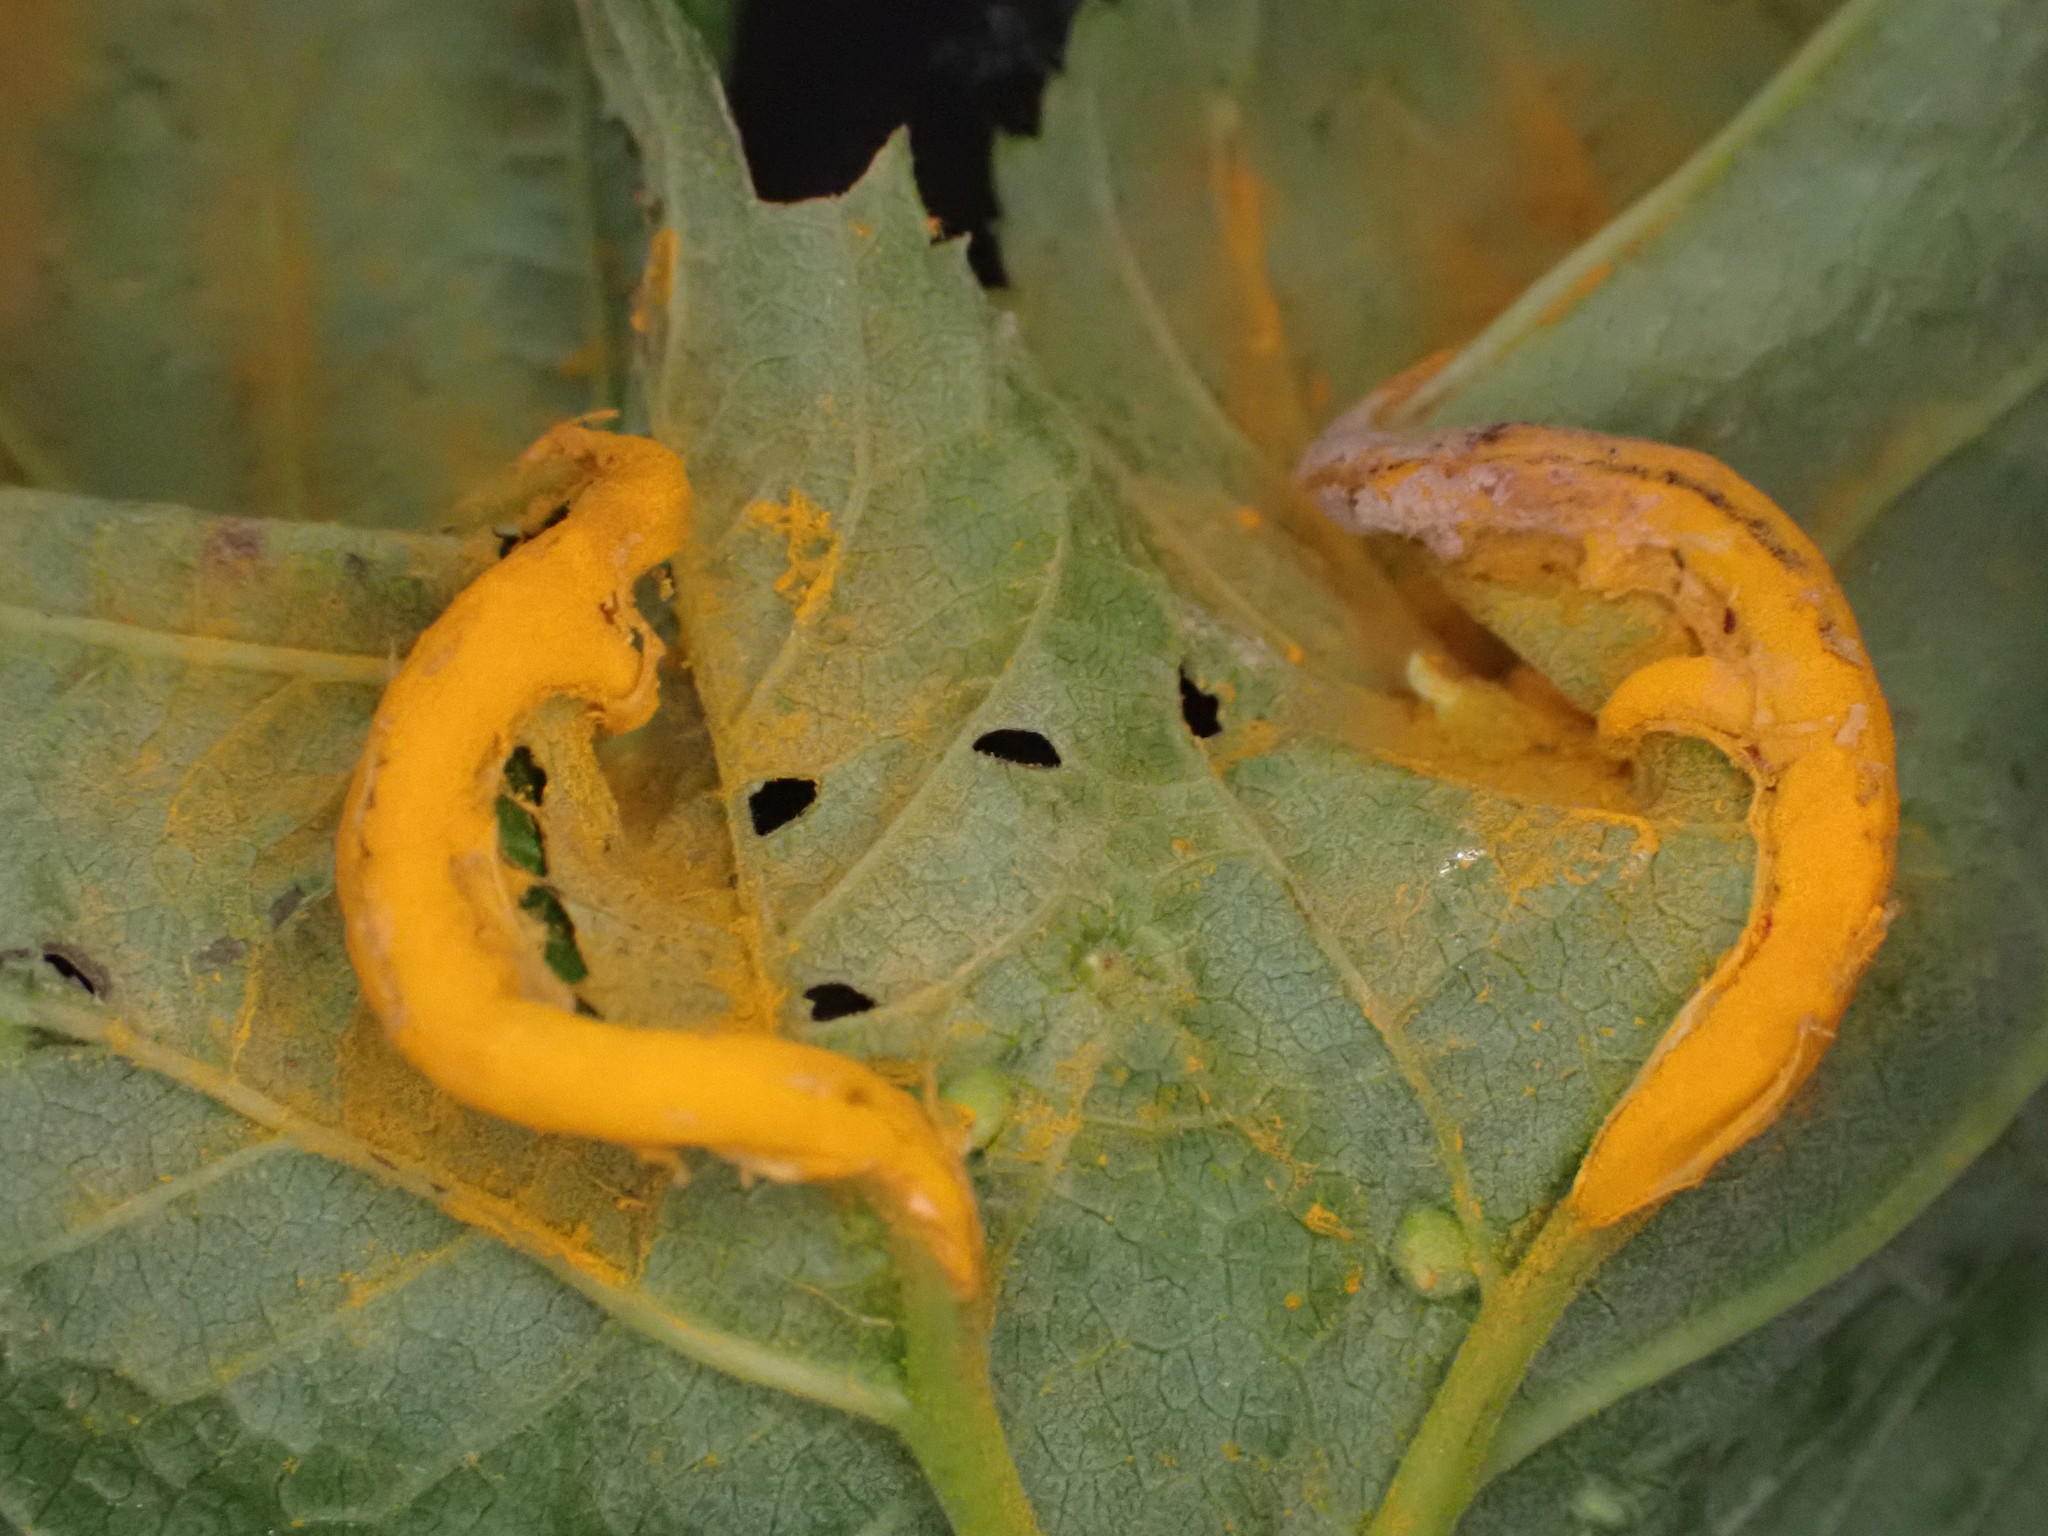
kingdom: Fungi
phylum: Basidiomycota
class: Pucciniomycetes
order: Pucciniales
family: Raveneliaceae
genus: Triphragmium
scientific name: Triphragmium ulmariae
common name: Meadowsweet rust
